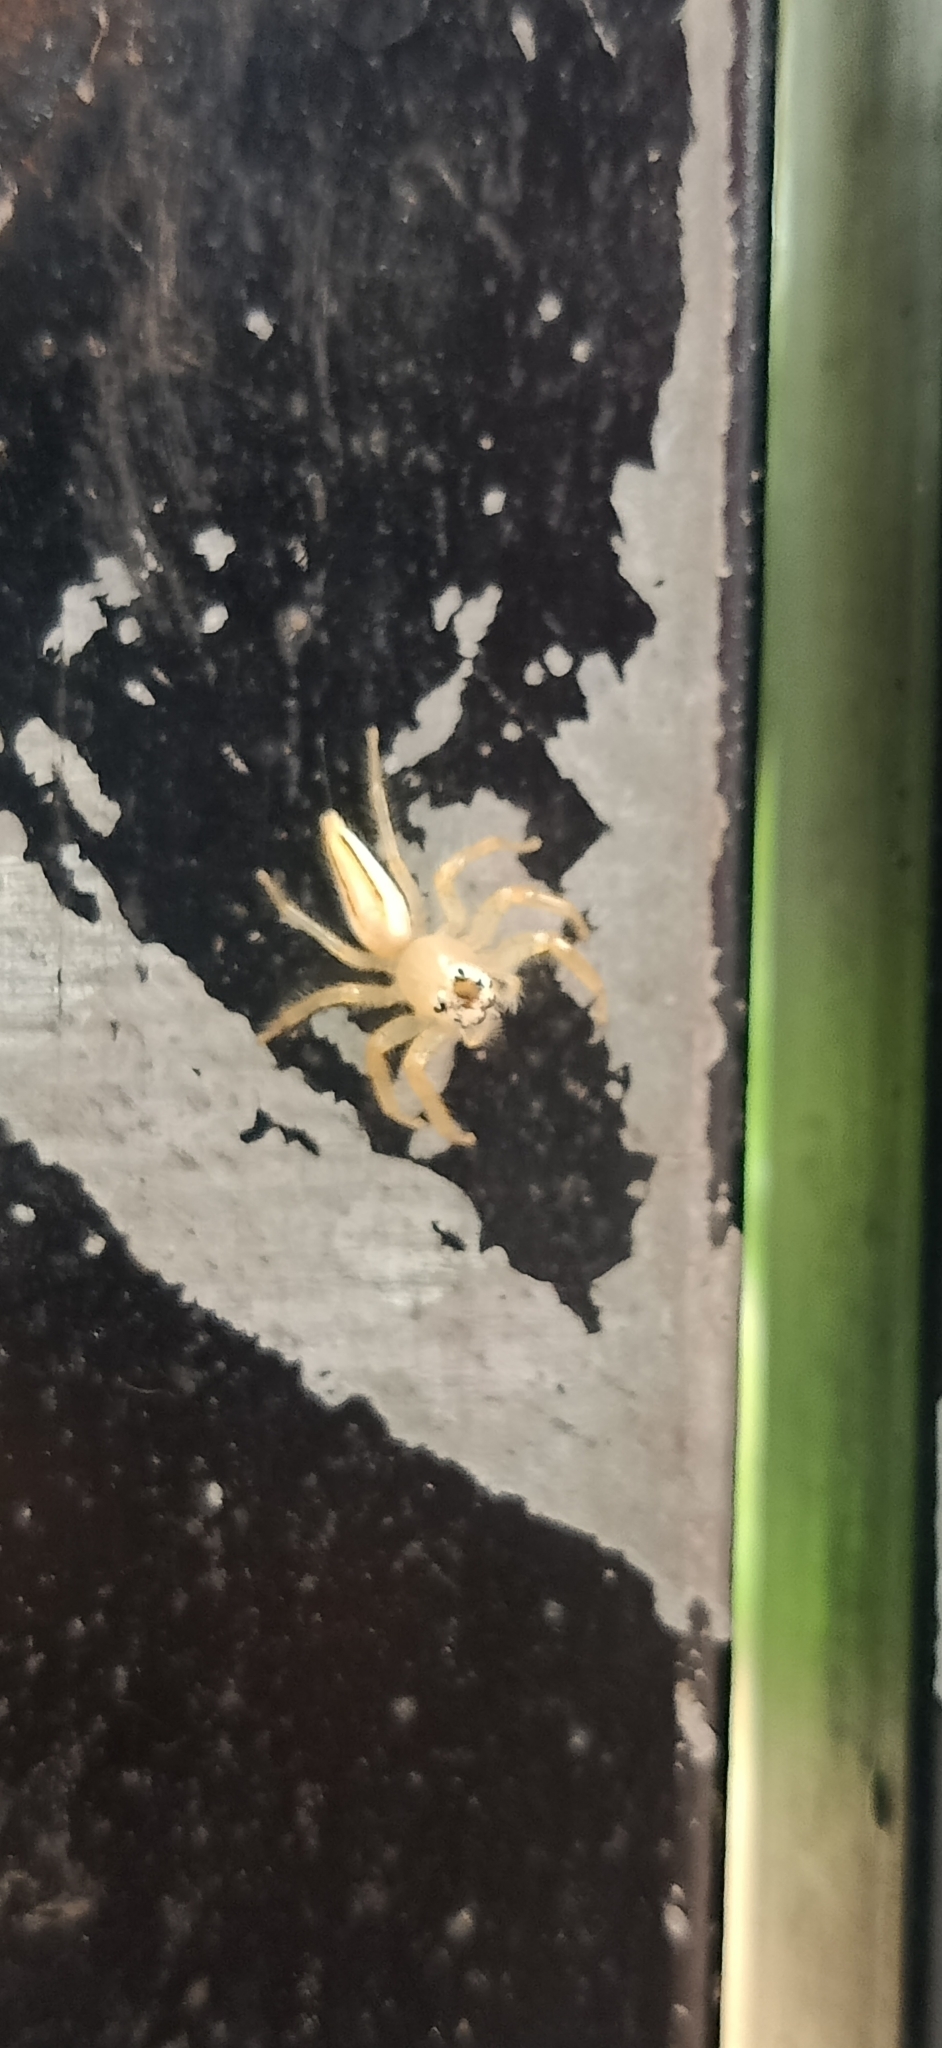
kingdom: Animalia
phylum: Arthropoda
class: Arachnida
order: Araneae
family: Salticidae
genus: Telamonia
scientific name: Telamonia dimidiata
